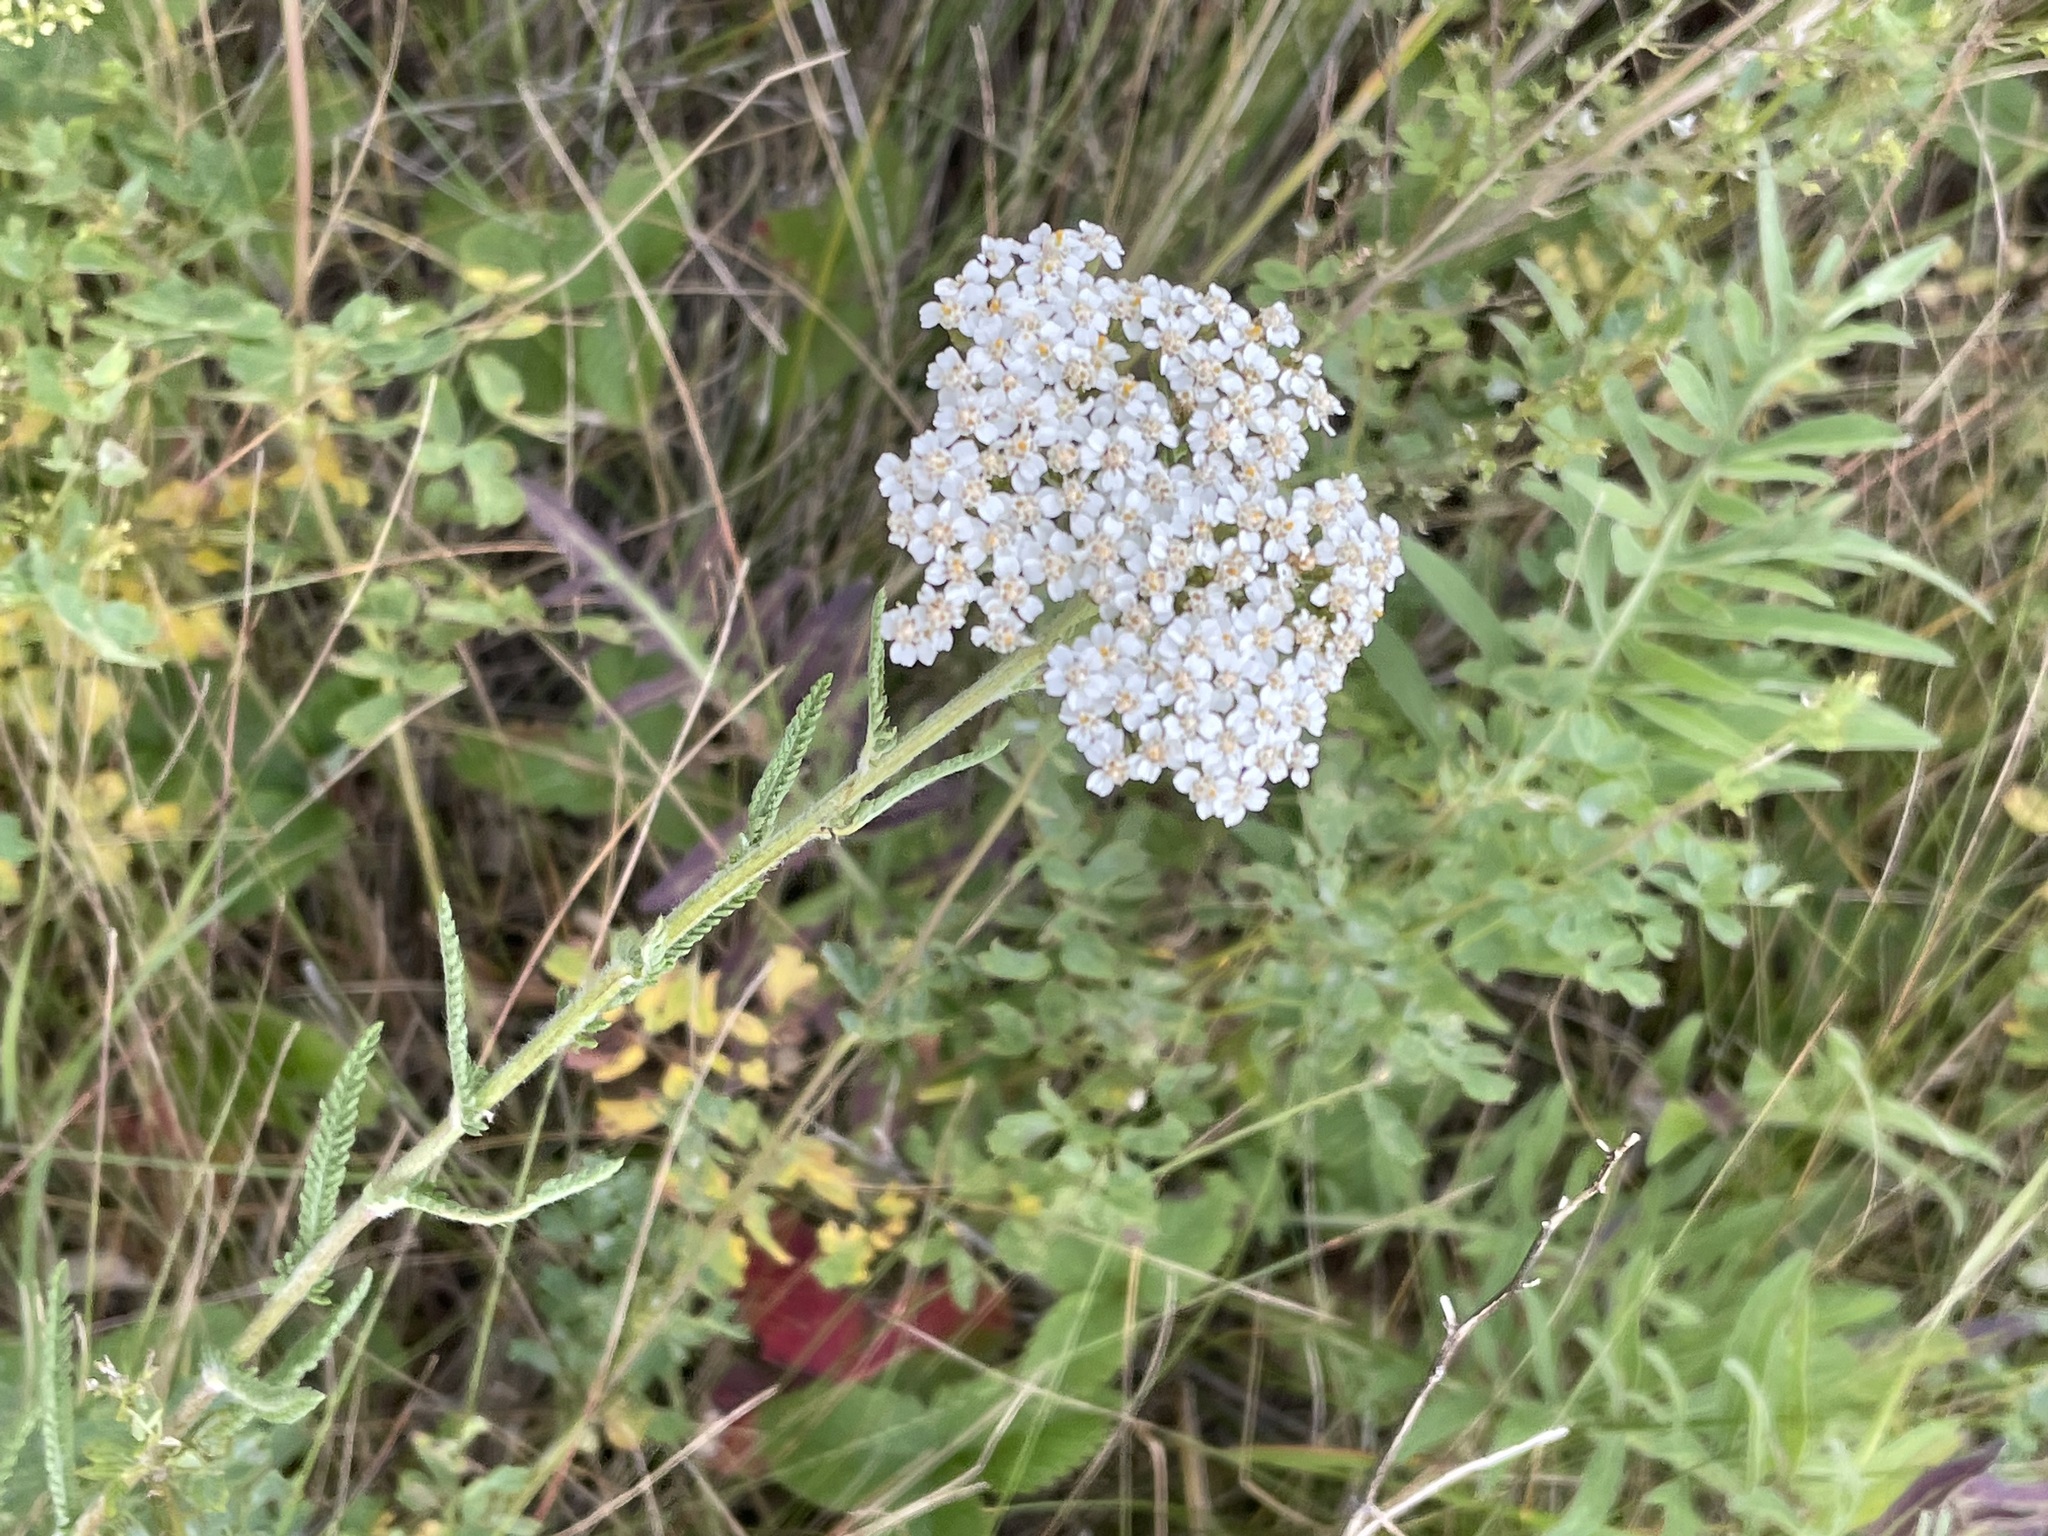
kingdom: Plantae
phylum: Tracheophyta
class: Magnoliopsida
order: Asterales
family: Asteraceae
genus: Achillea
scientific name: Achillea millefolium
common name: Yarrow
